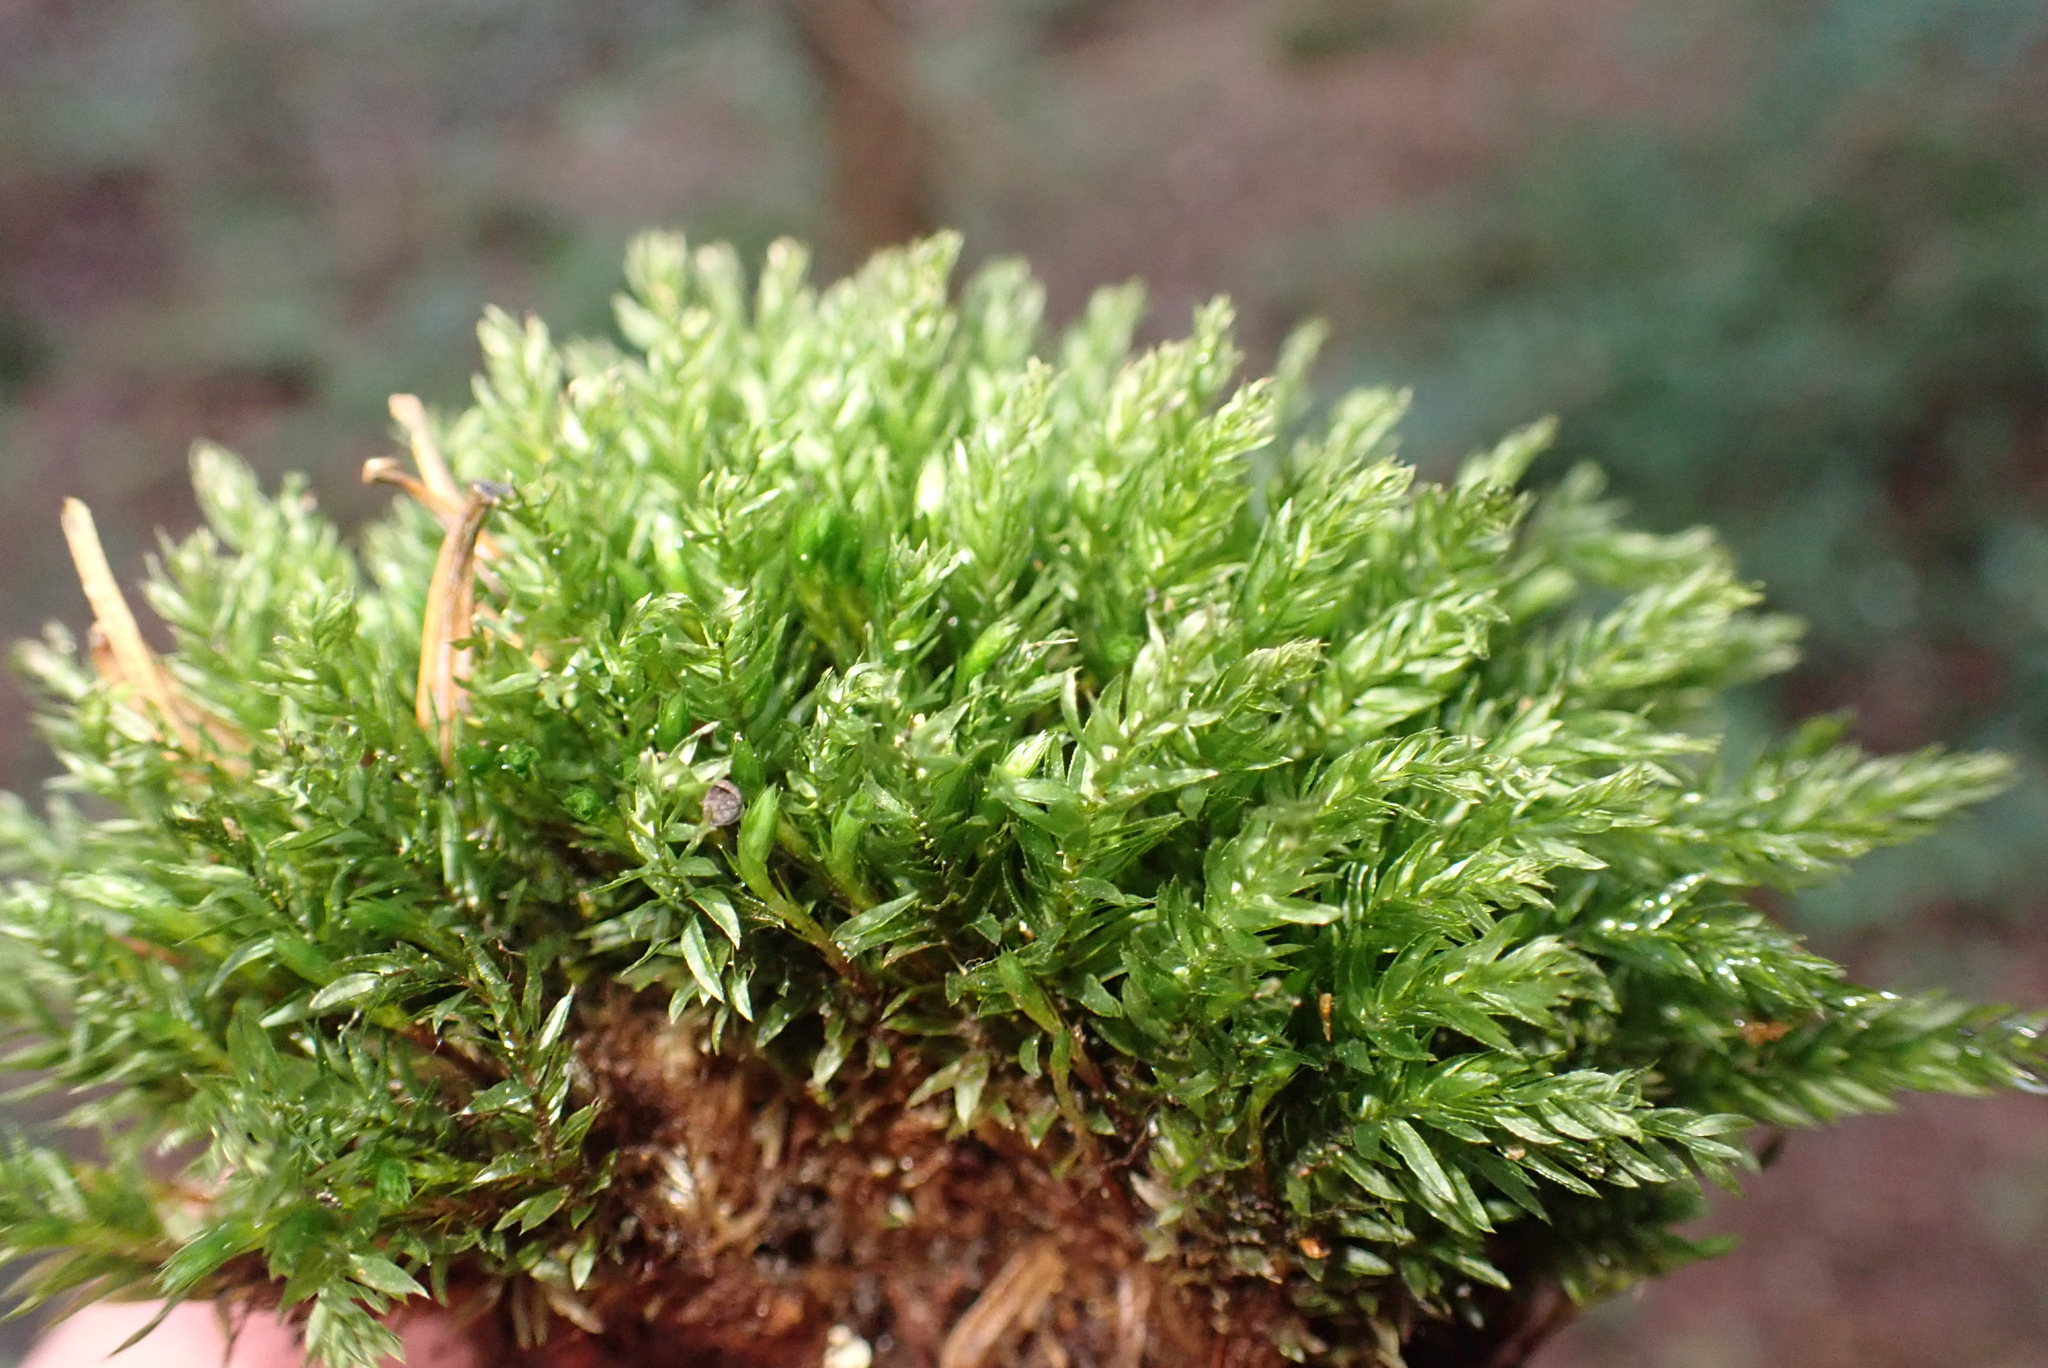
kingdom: Plantae
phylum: Bryophyta
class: Bryopsida
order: Bryales
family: Mniaceae
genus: Mnium
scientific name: Mnium hornum
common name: Swan's-neck leafy moss
